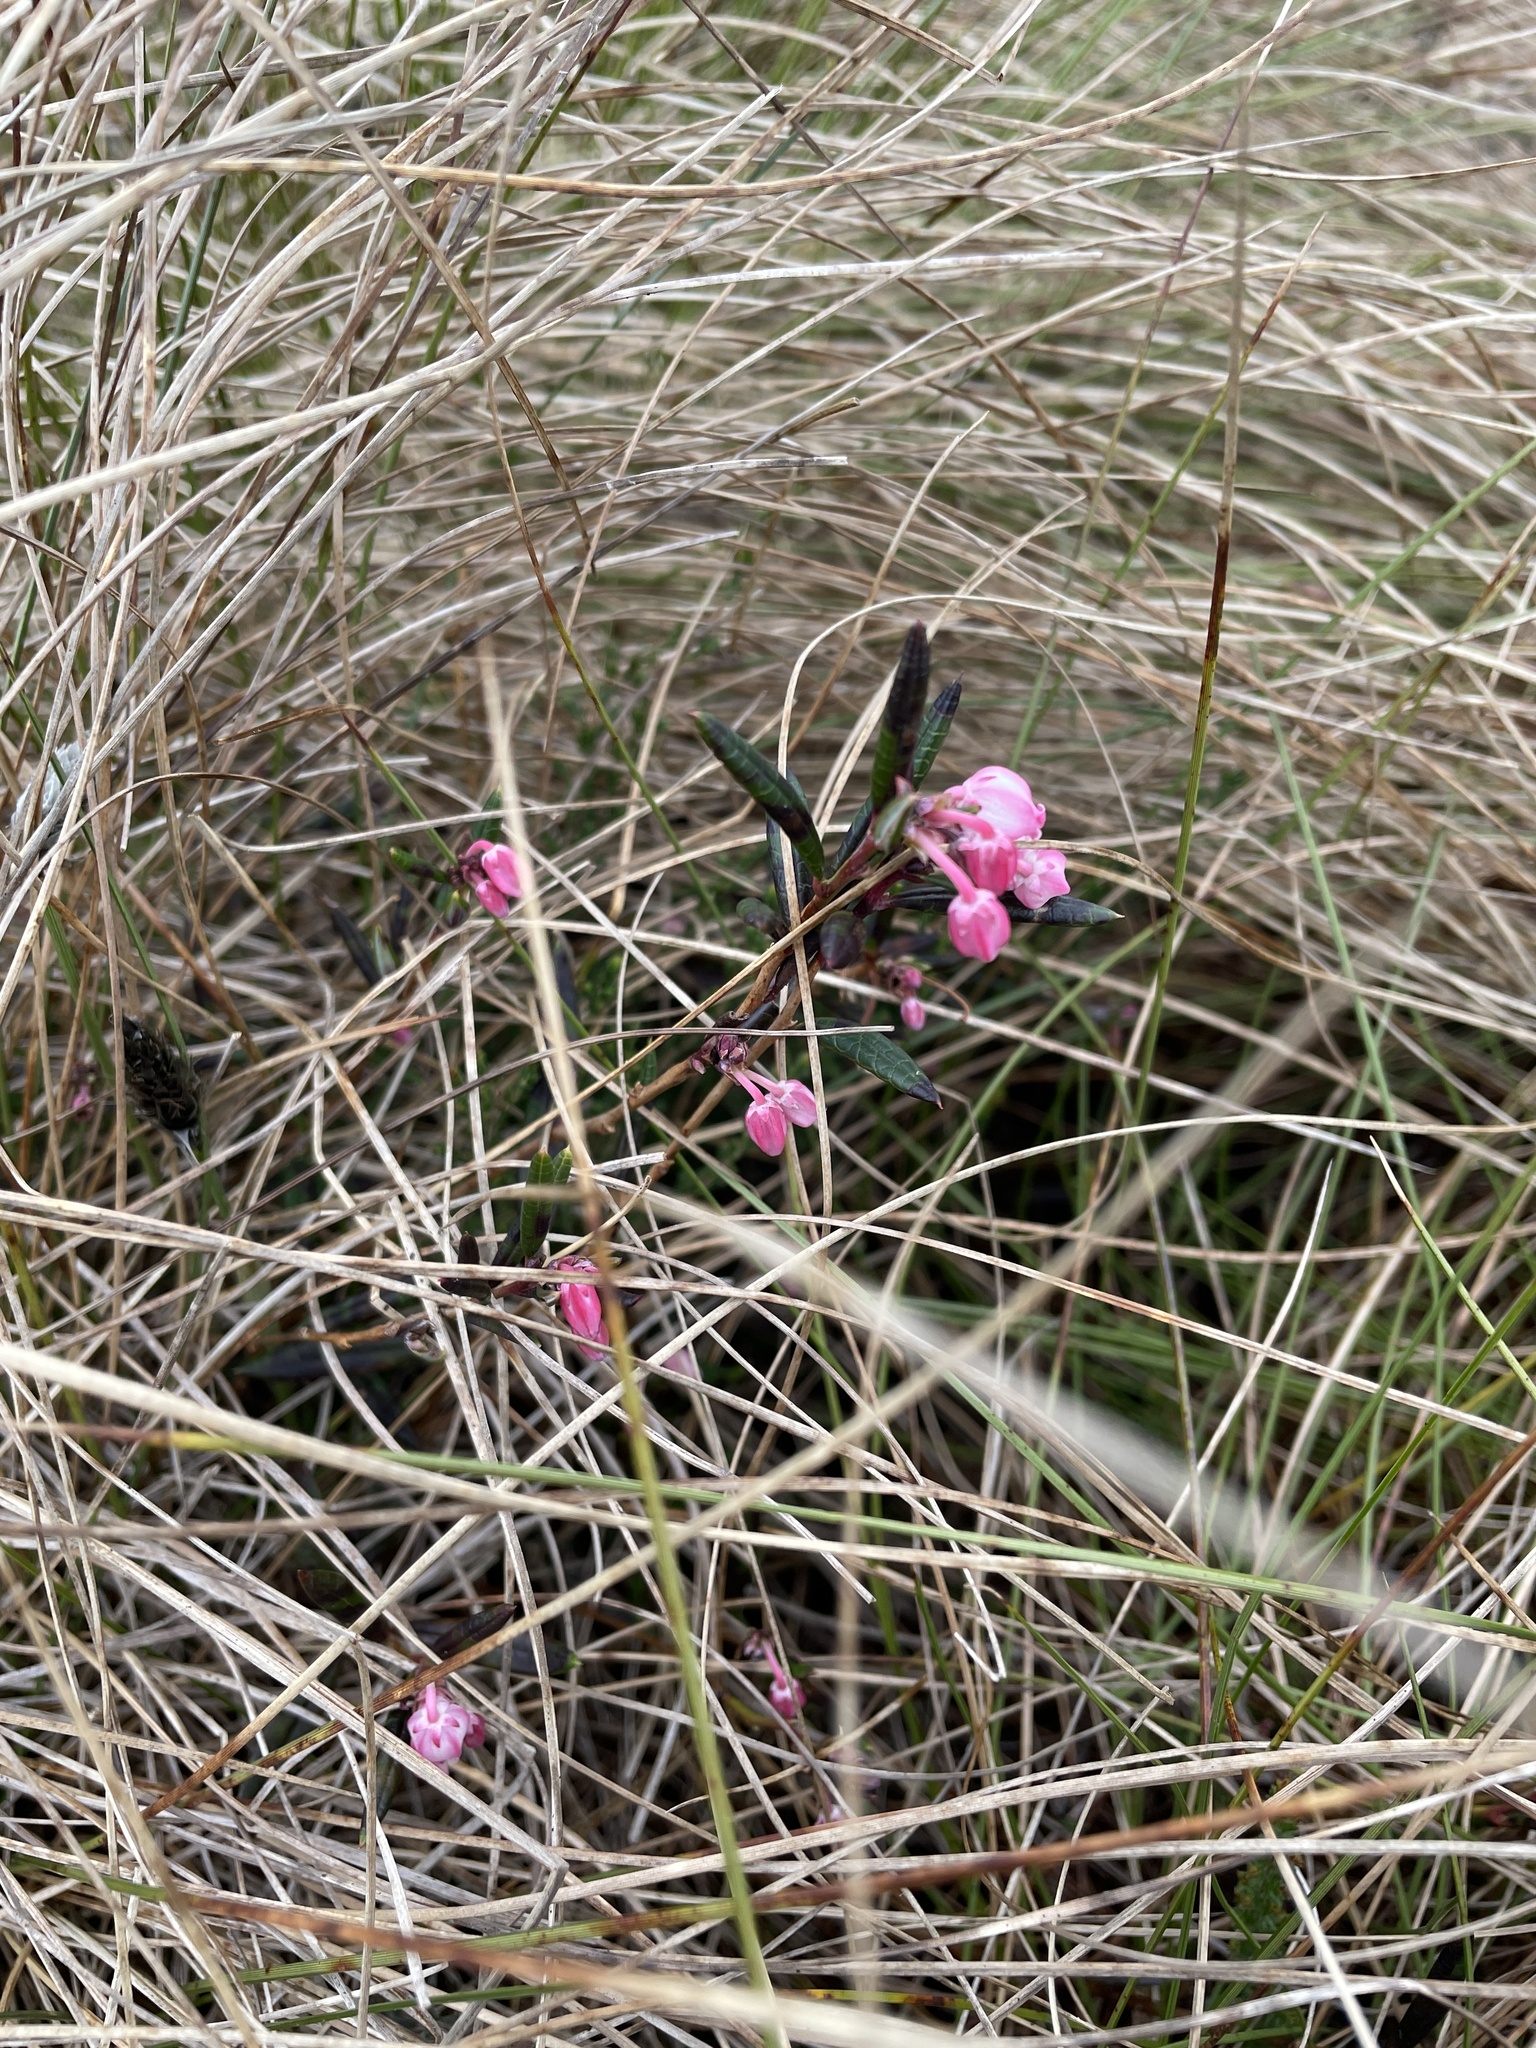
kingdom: Plantae
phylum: Tracheophyta
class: Magnoliopsida
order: Ericales
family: Ericaceae
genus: Andromeda
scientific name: Andromeda polifolia
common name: Bog-rosemary
